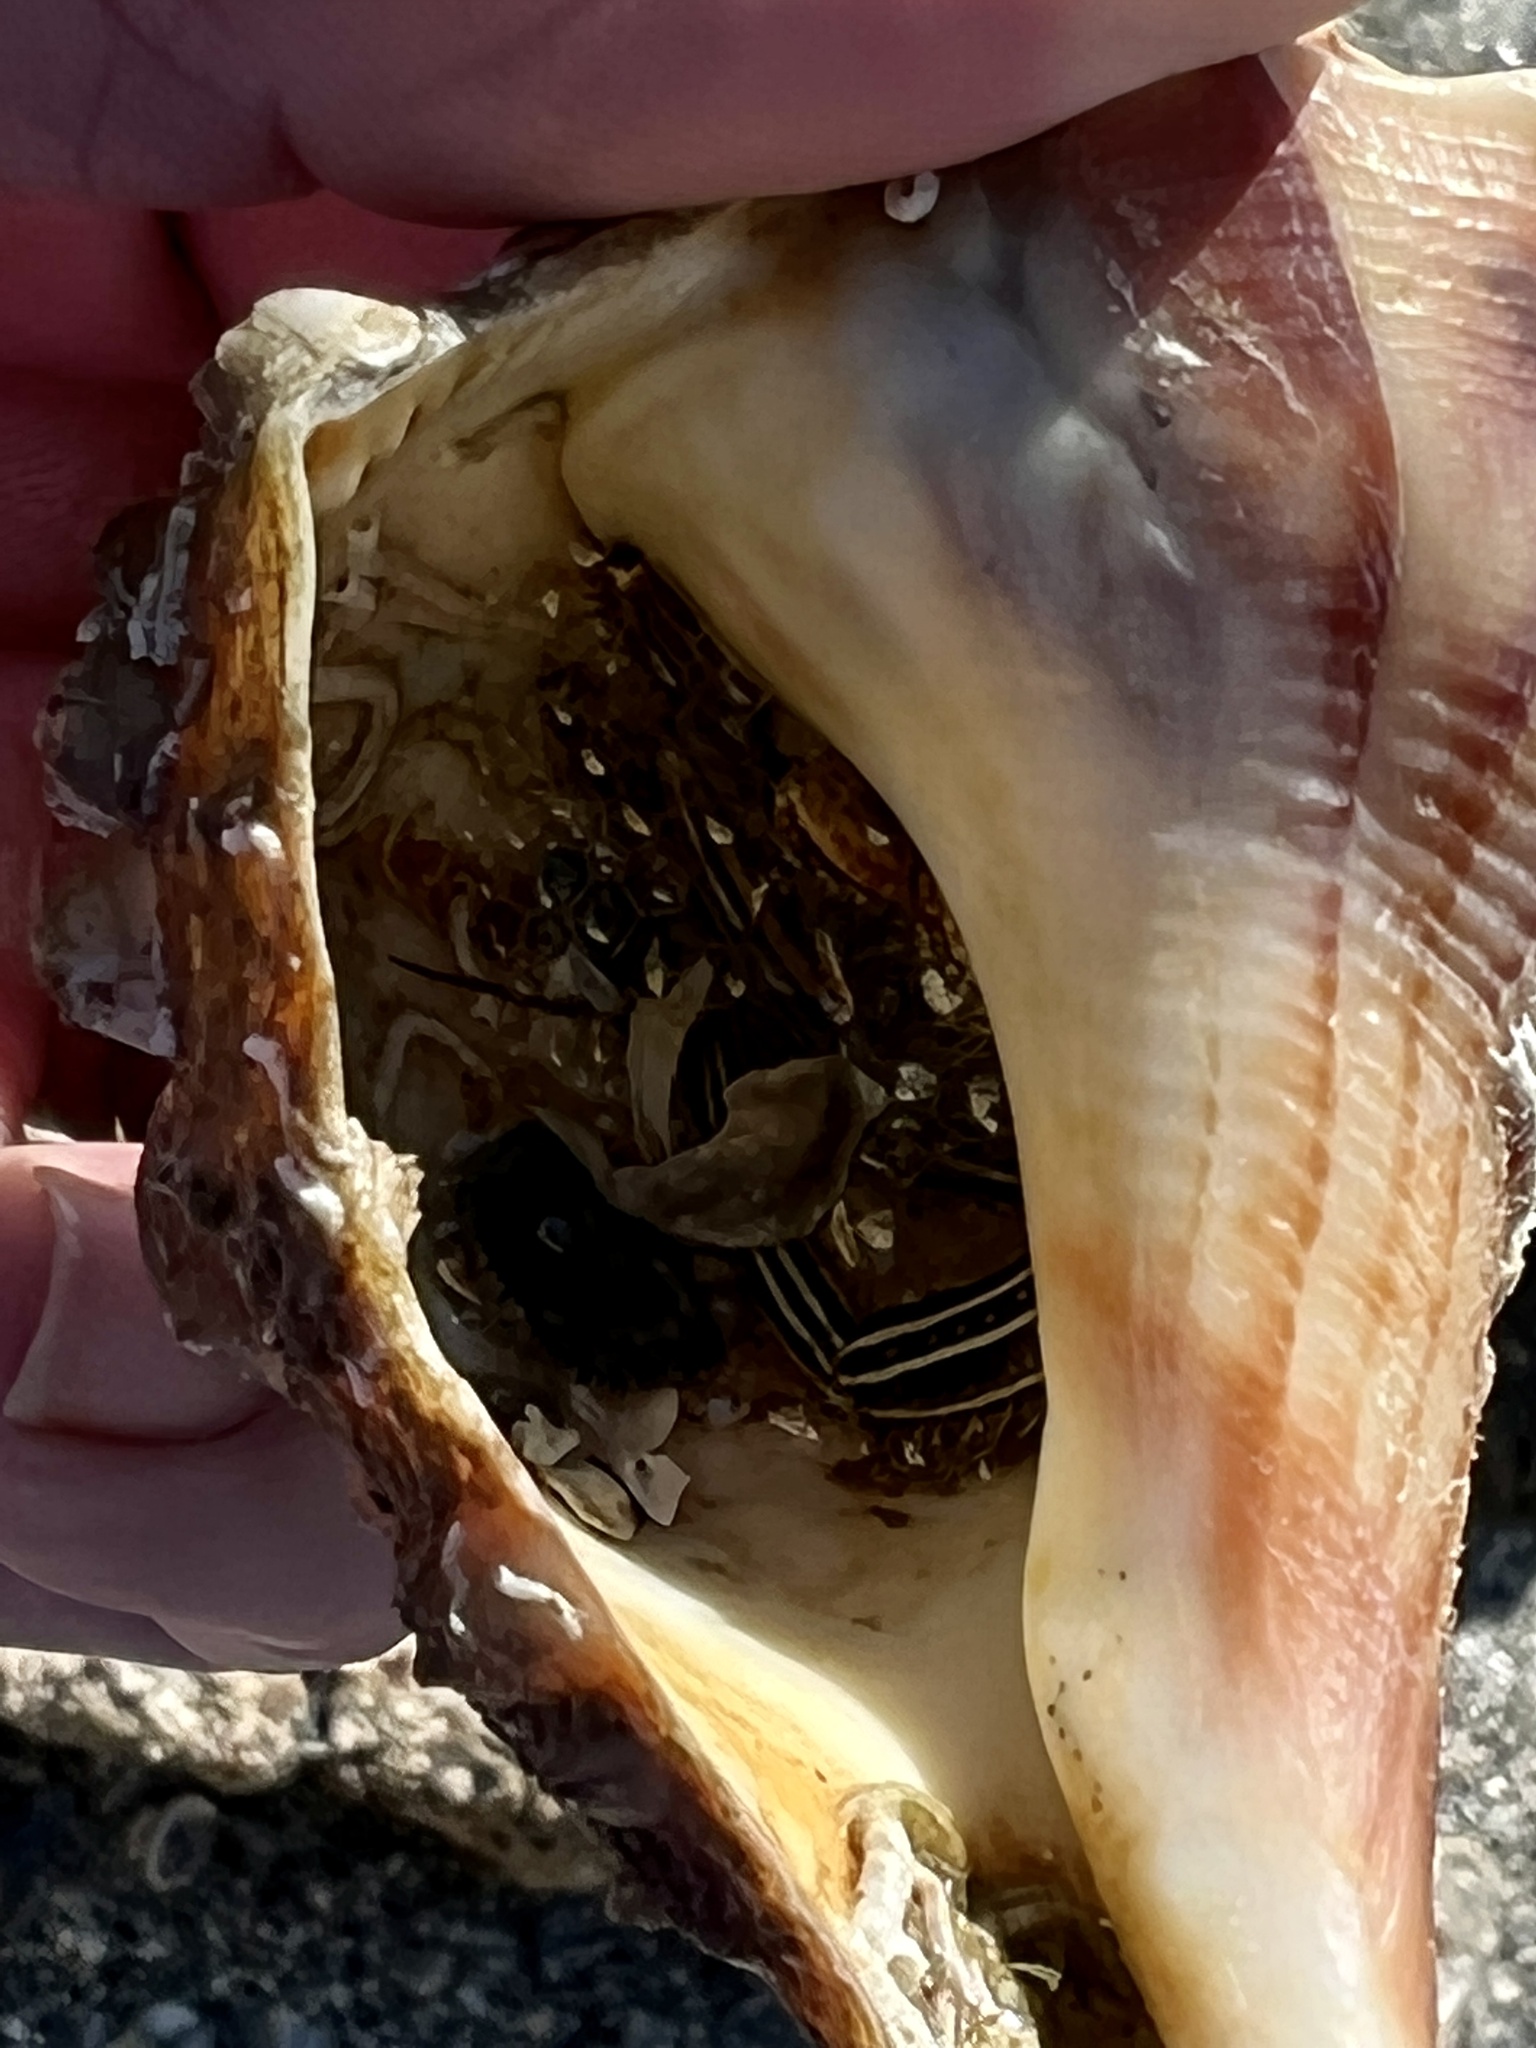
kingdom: Animalia
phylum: Arthropoda
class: Malacostraca
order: Decapoda
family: Diogenidae
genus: Clibanarius
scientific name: Clibanarius vittatus
